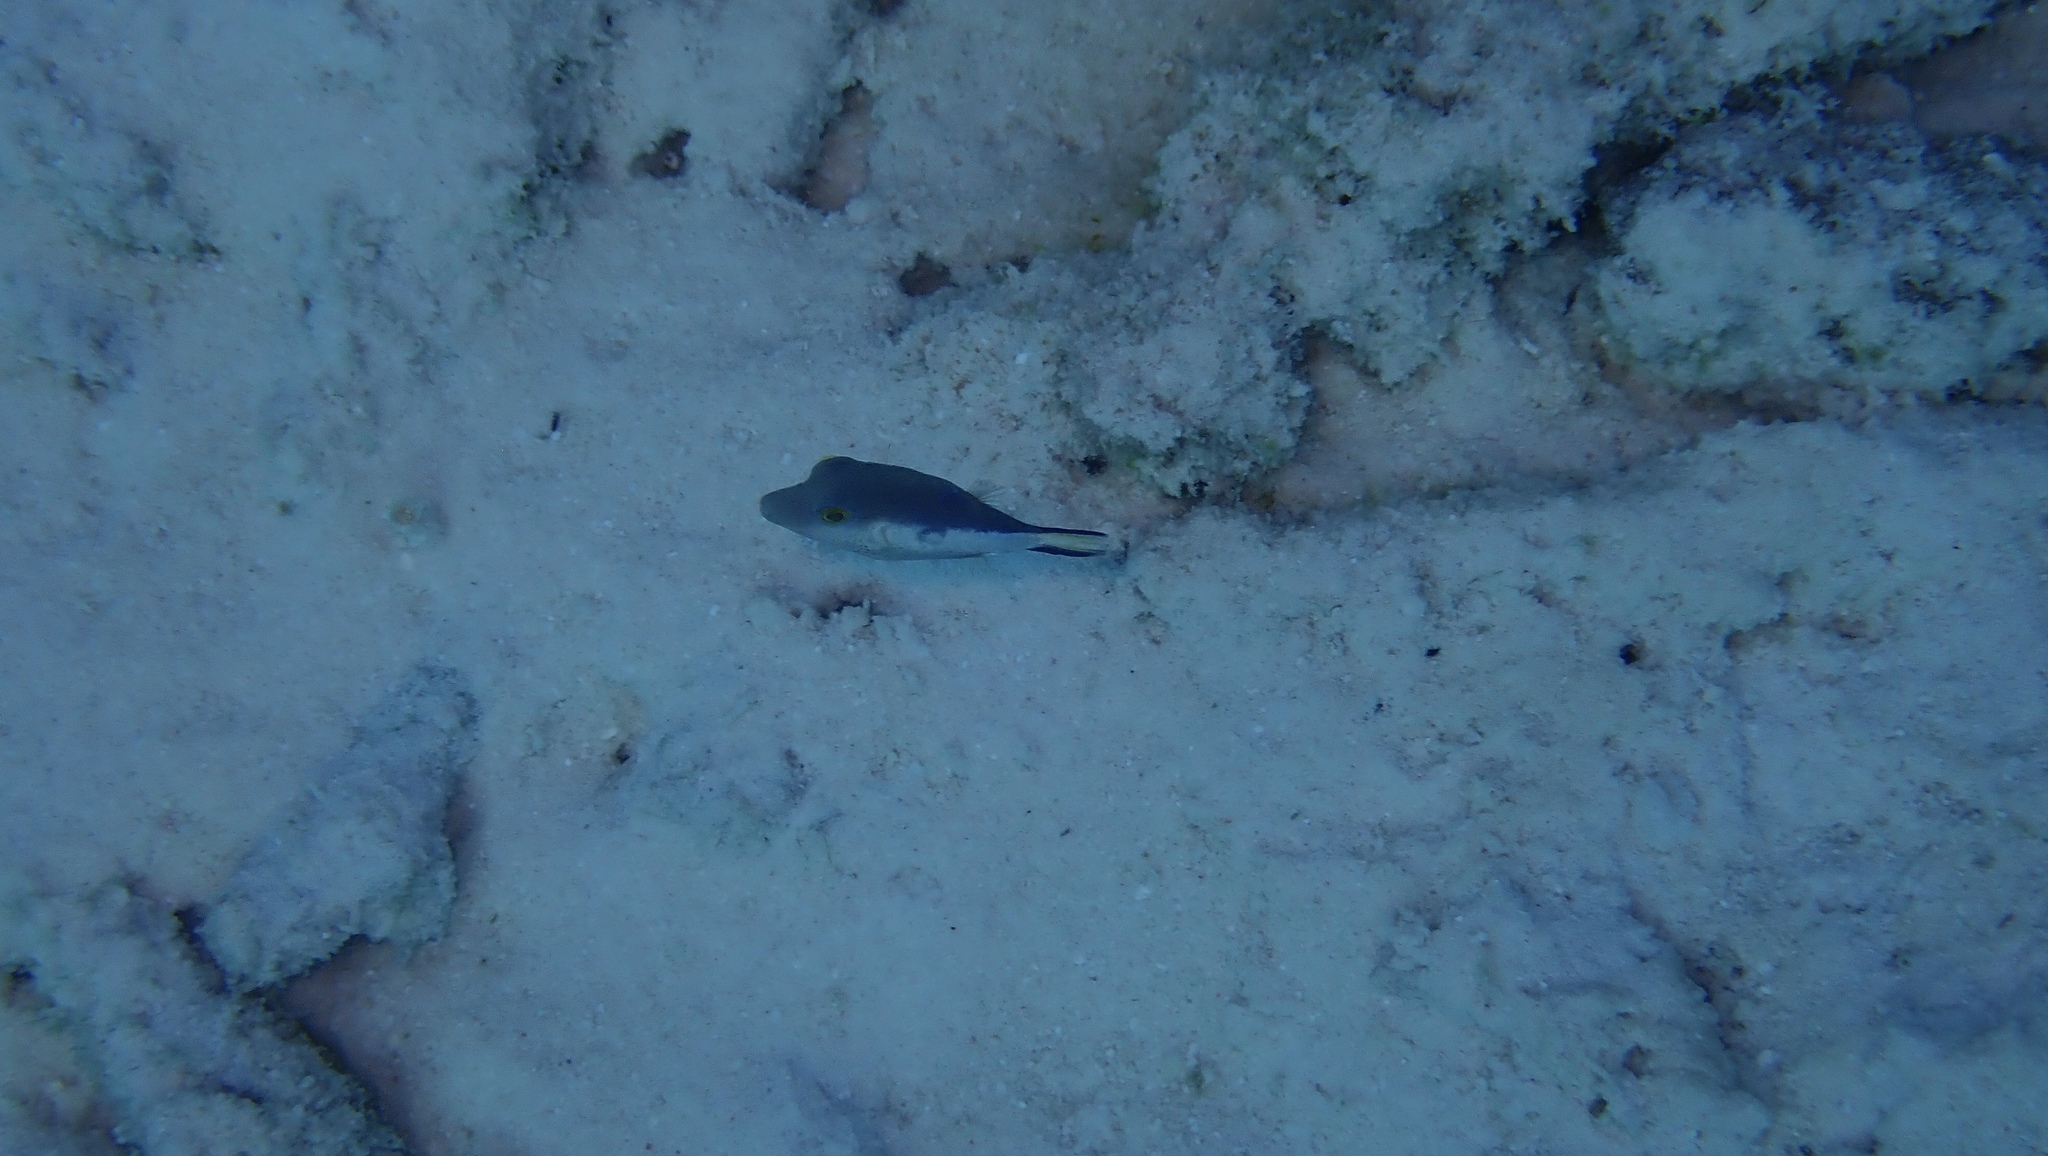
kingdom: Animalia
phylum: Chordata
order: Tetraodontiformes
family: Tetraodontidae
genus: Canthigaster
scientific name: Canthigaster rostrata
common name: Caribbean sharpnose-puffer
